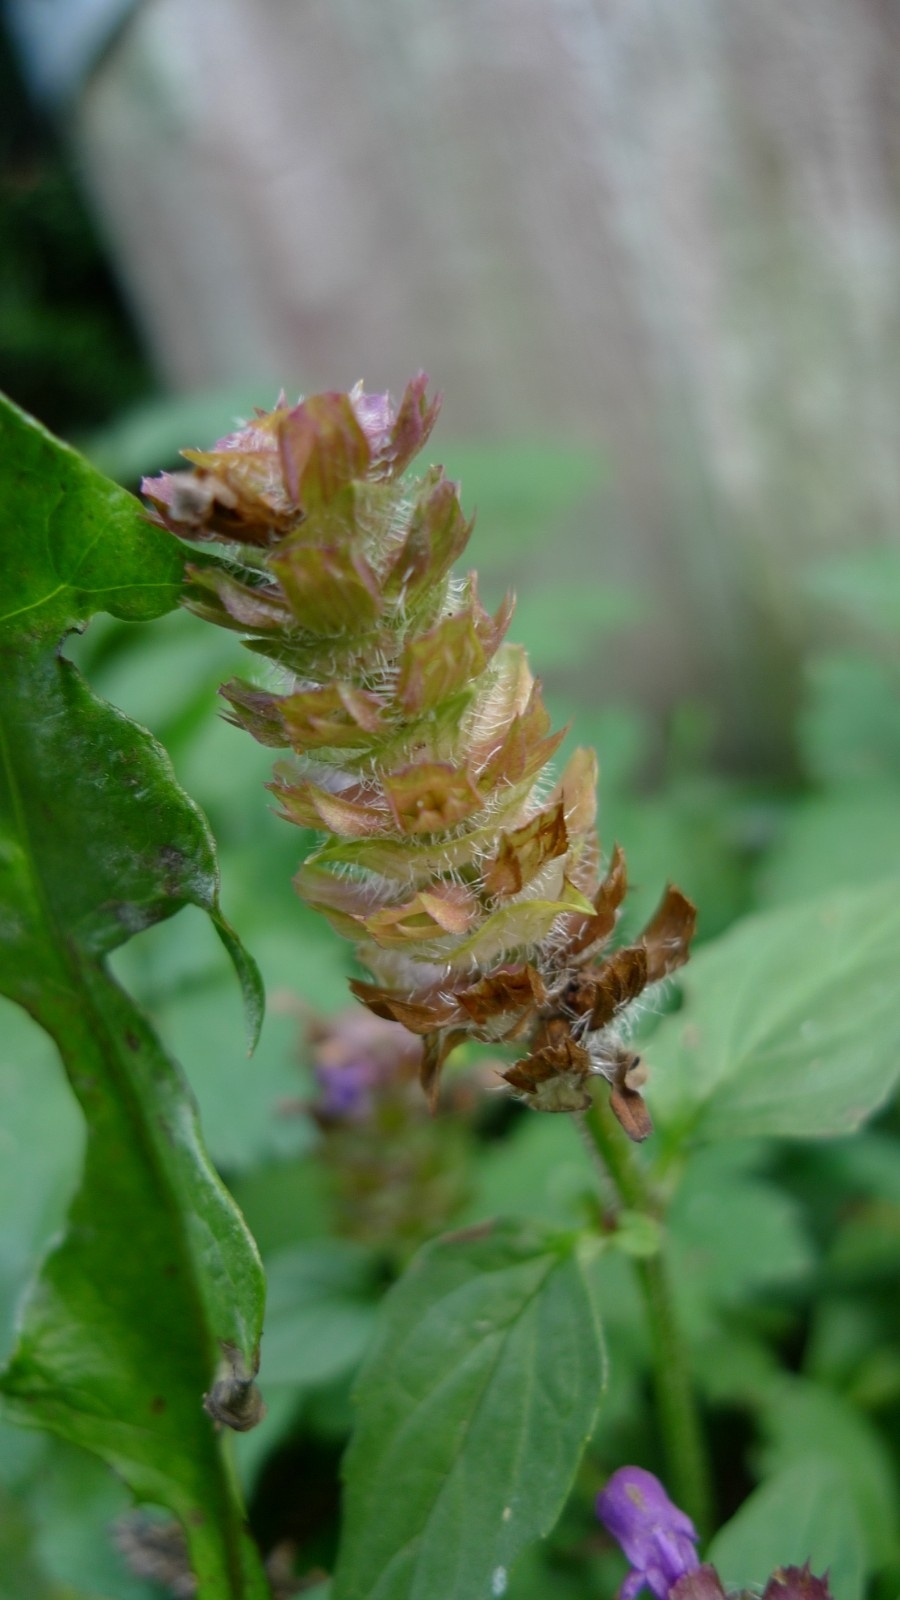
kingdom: Plantae
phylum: Tracheophyta
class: Magnoliopsida
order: Lamiales
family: Lamiaceae
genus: Prunella
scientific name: Prunella vulgaris
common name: Heal-all
